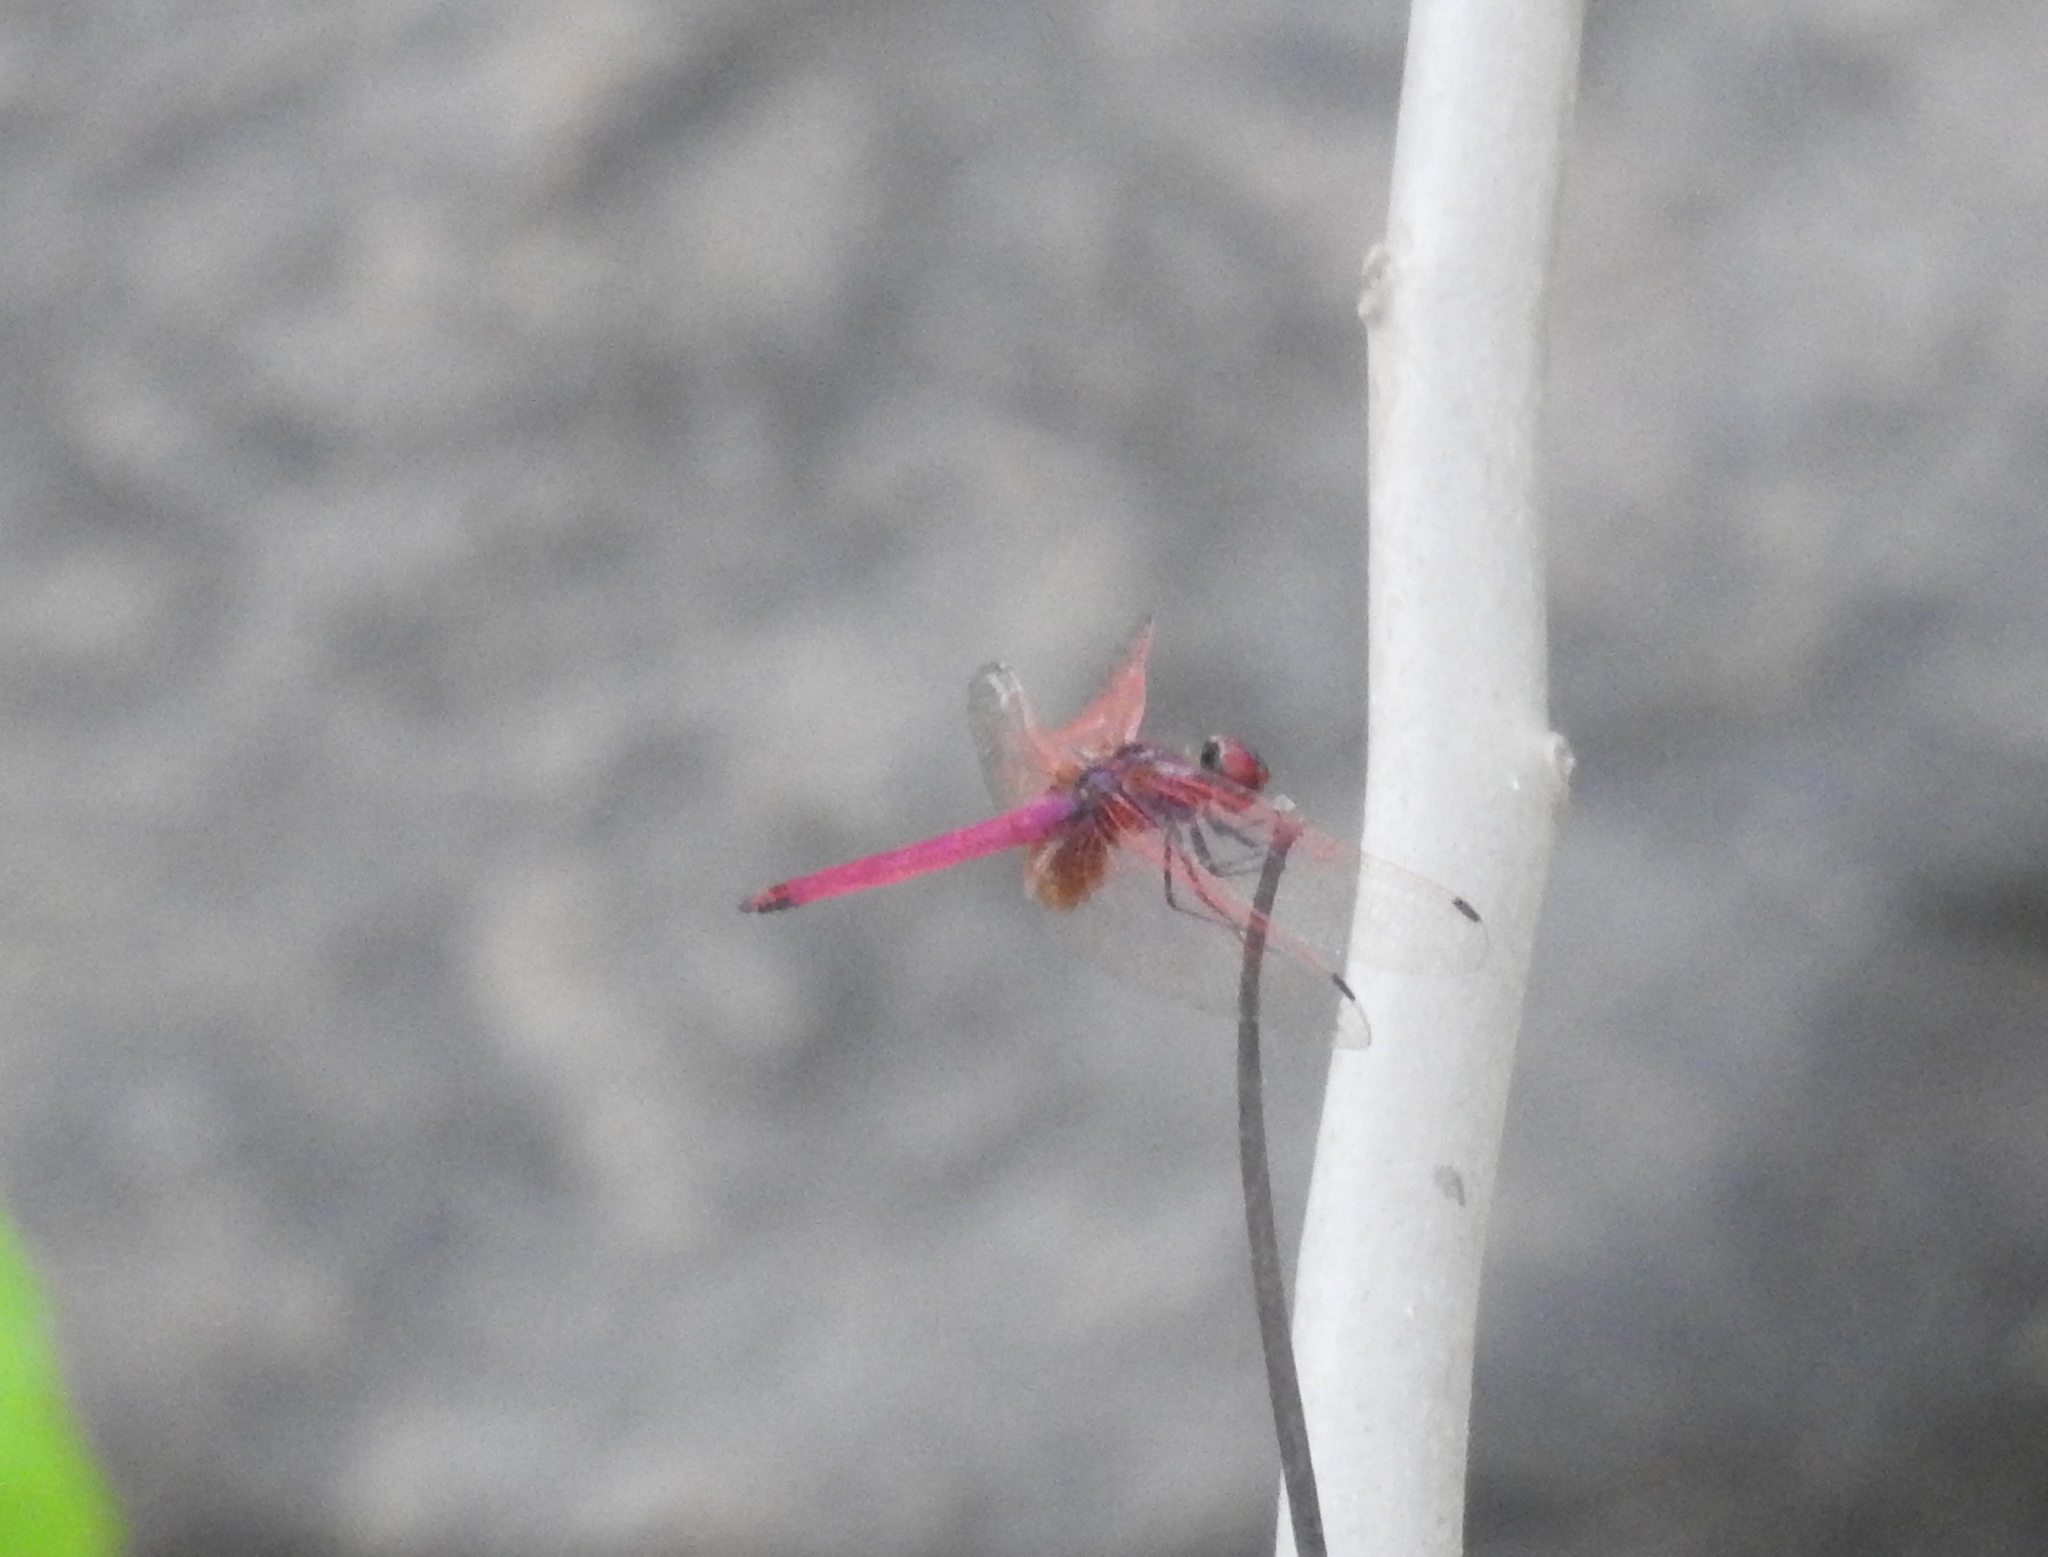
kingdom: Animalia
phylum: Arthropoda
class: Insecta
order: Odonata
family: Libellulidae
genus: Trithemis
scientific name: Trithemis aurora
